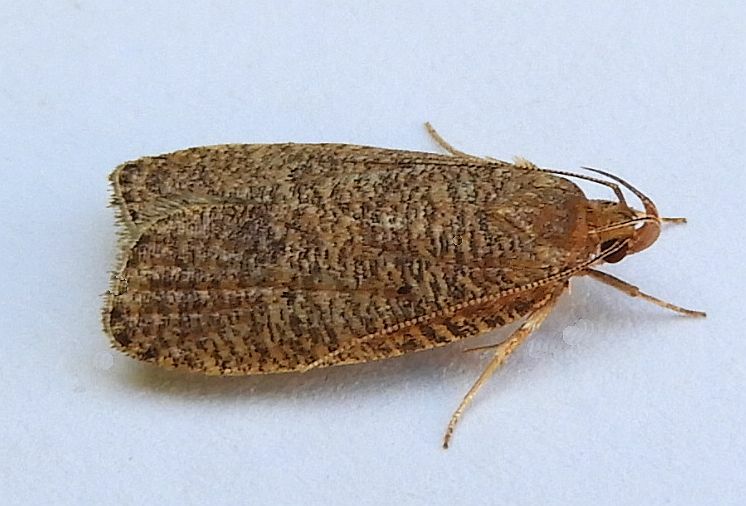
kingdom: Animalia
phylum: Arthropoda
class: Insecta
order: Lepidoptera
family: Depressariidae
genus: Psilocorsis
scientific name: Psilocorsis reflexella
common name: Dotted leaftier moth
